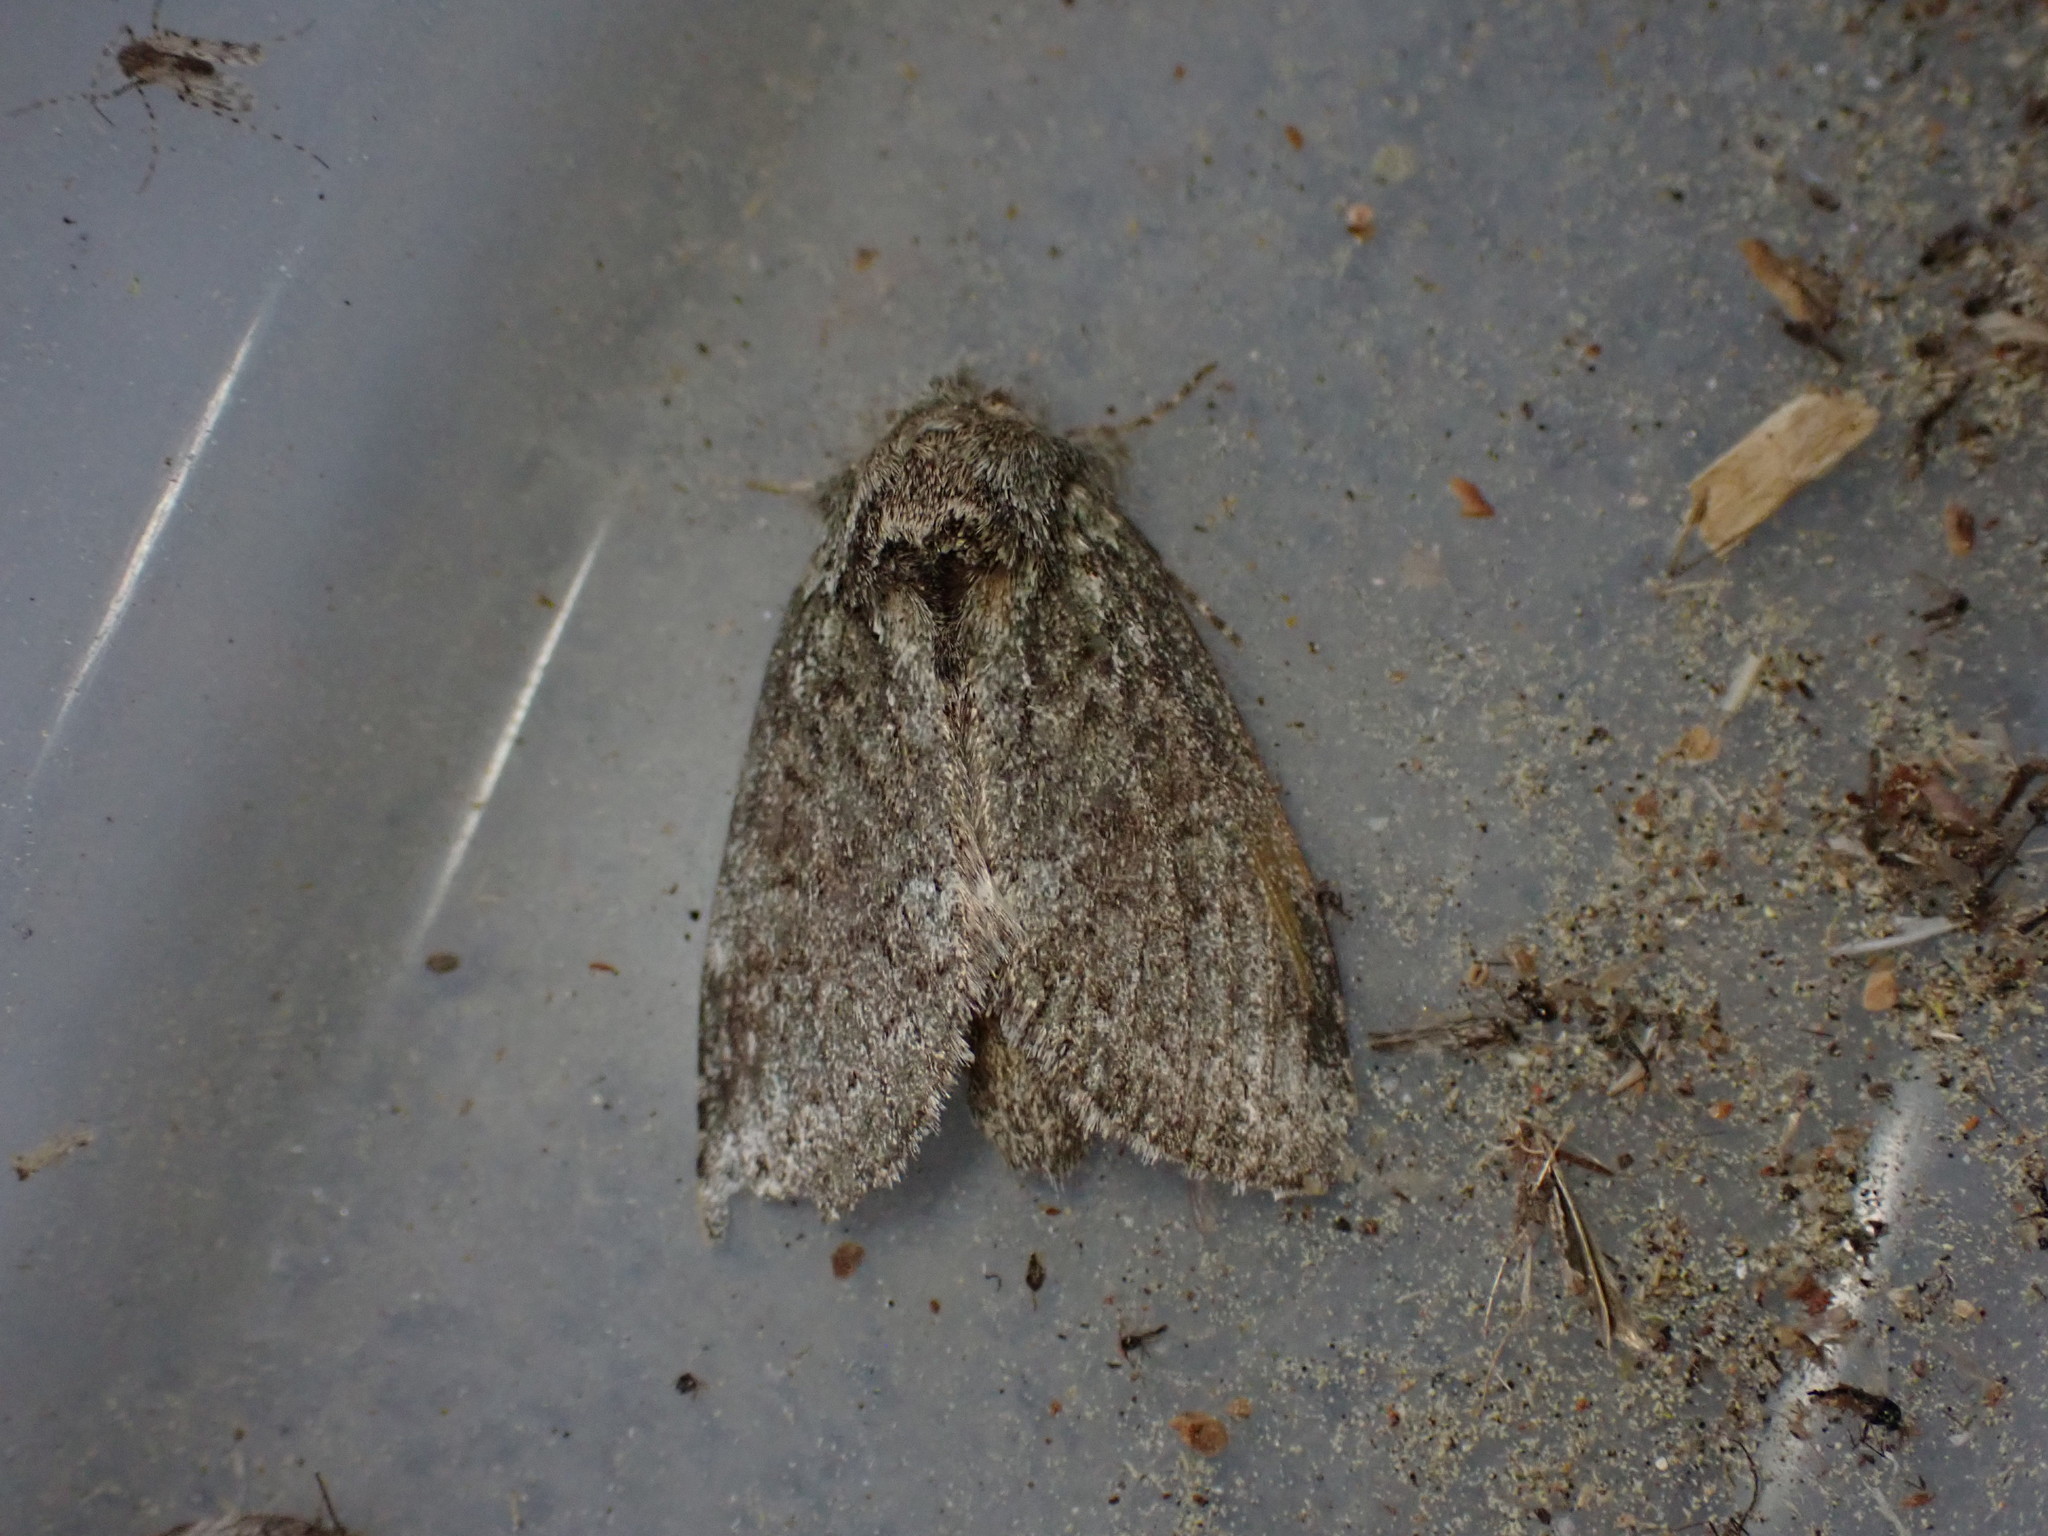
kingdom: Animalia
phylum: Arthropoda
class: Insecta
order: Lepidoptera
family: Notodontidae
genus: Disphragis
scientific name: Disphragis Cecrita guttivitta
